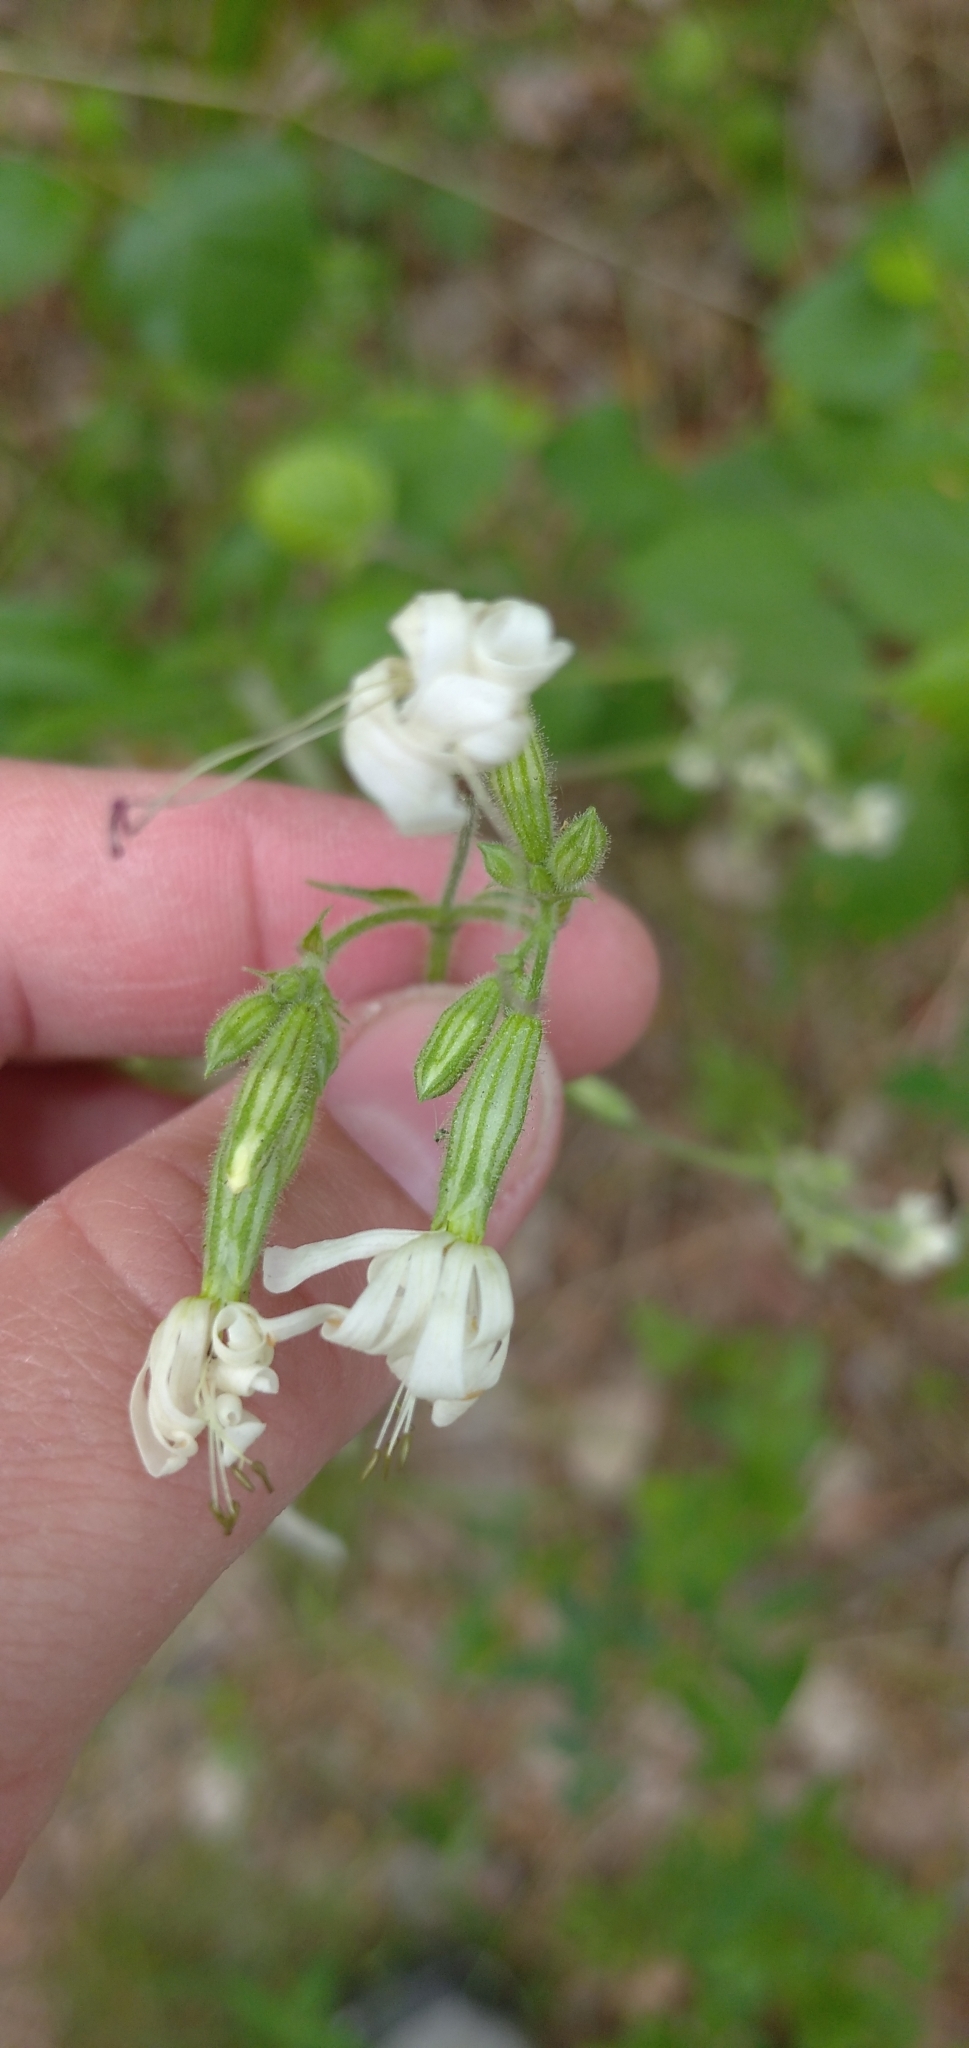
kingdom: Plantae
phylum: Tracheophyta
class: Magnoliopsida
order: Caryophyllales
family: Caryophyllaceae
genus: Silene
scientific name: Silene nutans
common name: Nottingham catchfly
